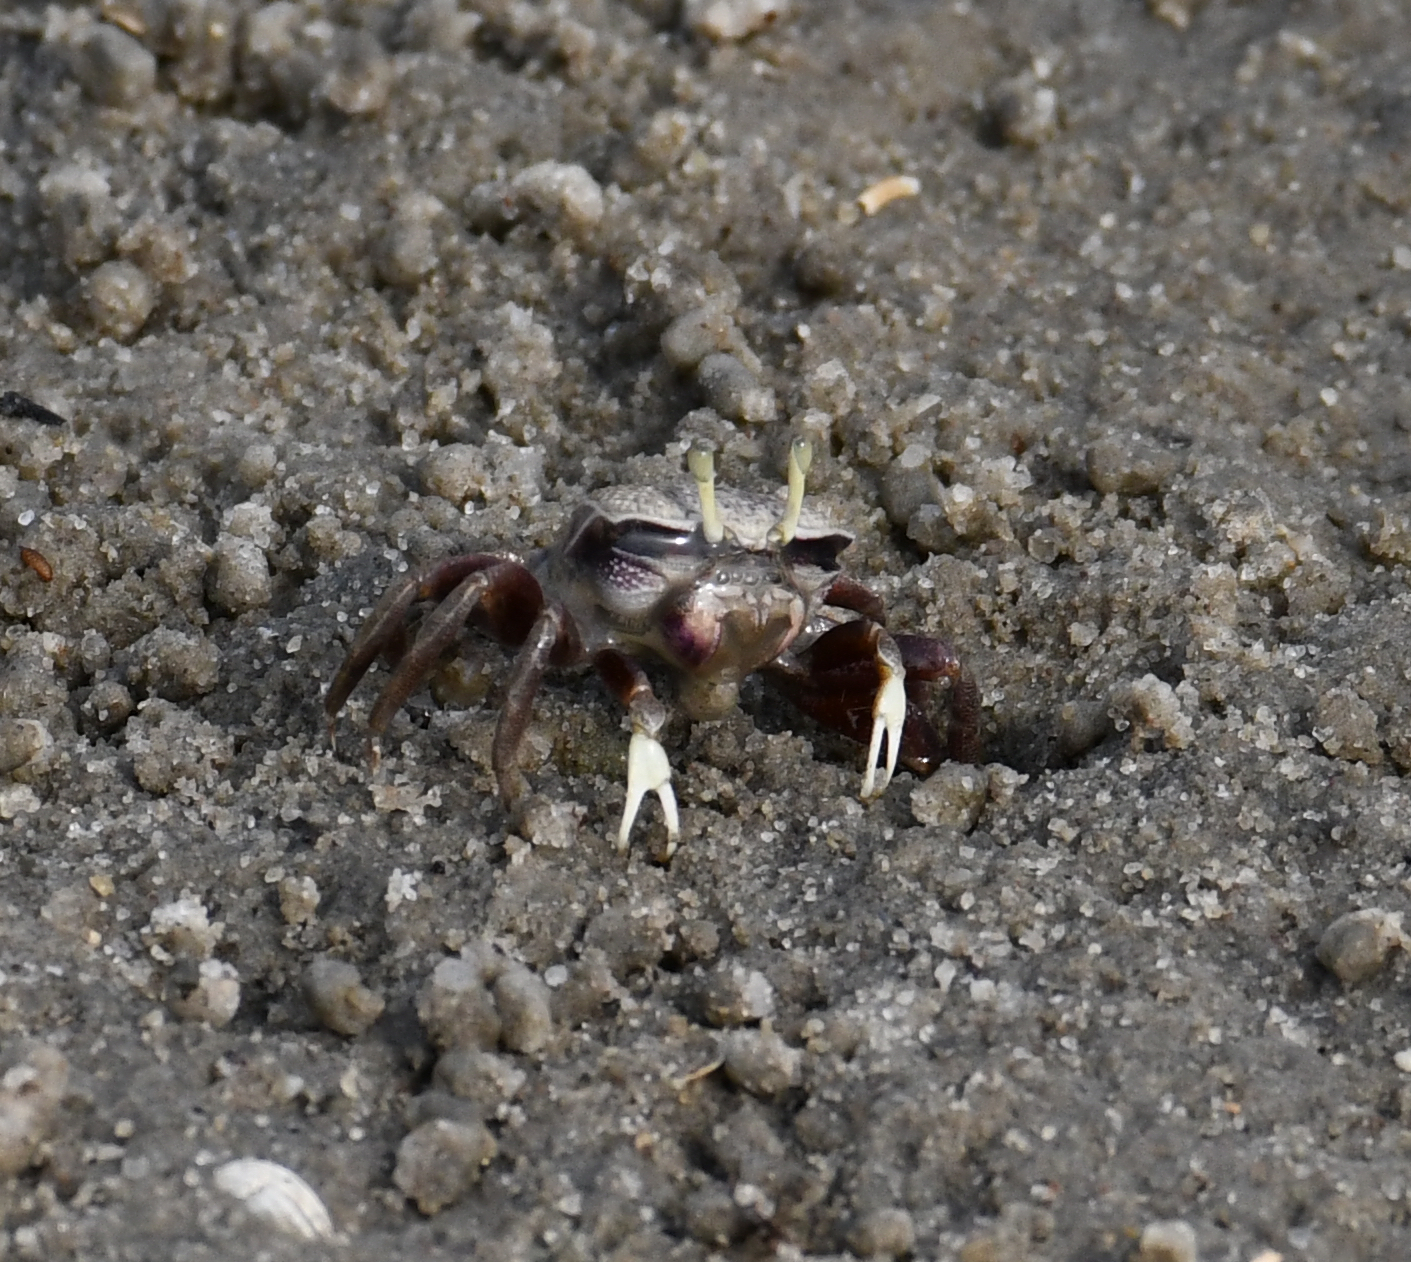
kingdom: Animalia
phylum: Arthropoda
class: Malacostraca
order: Decapoda
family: Ocypodidae
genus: Afruca
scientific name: Afruca tangeri
